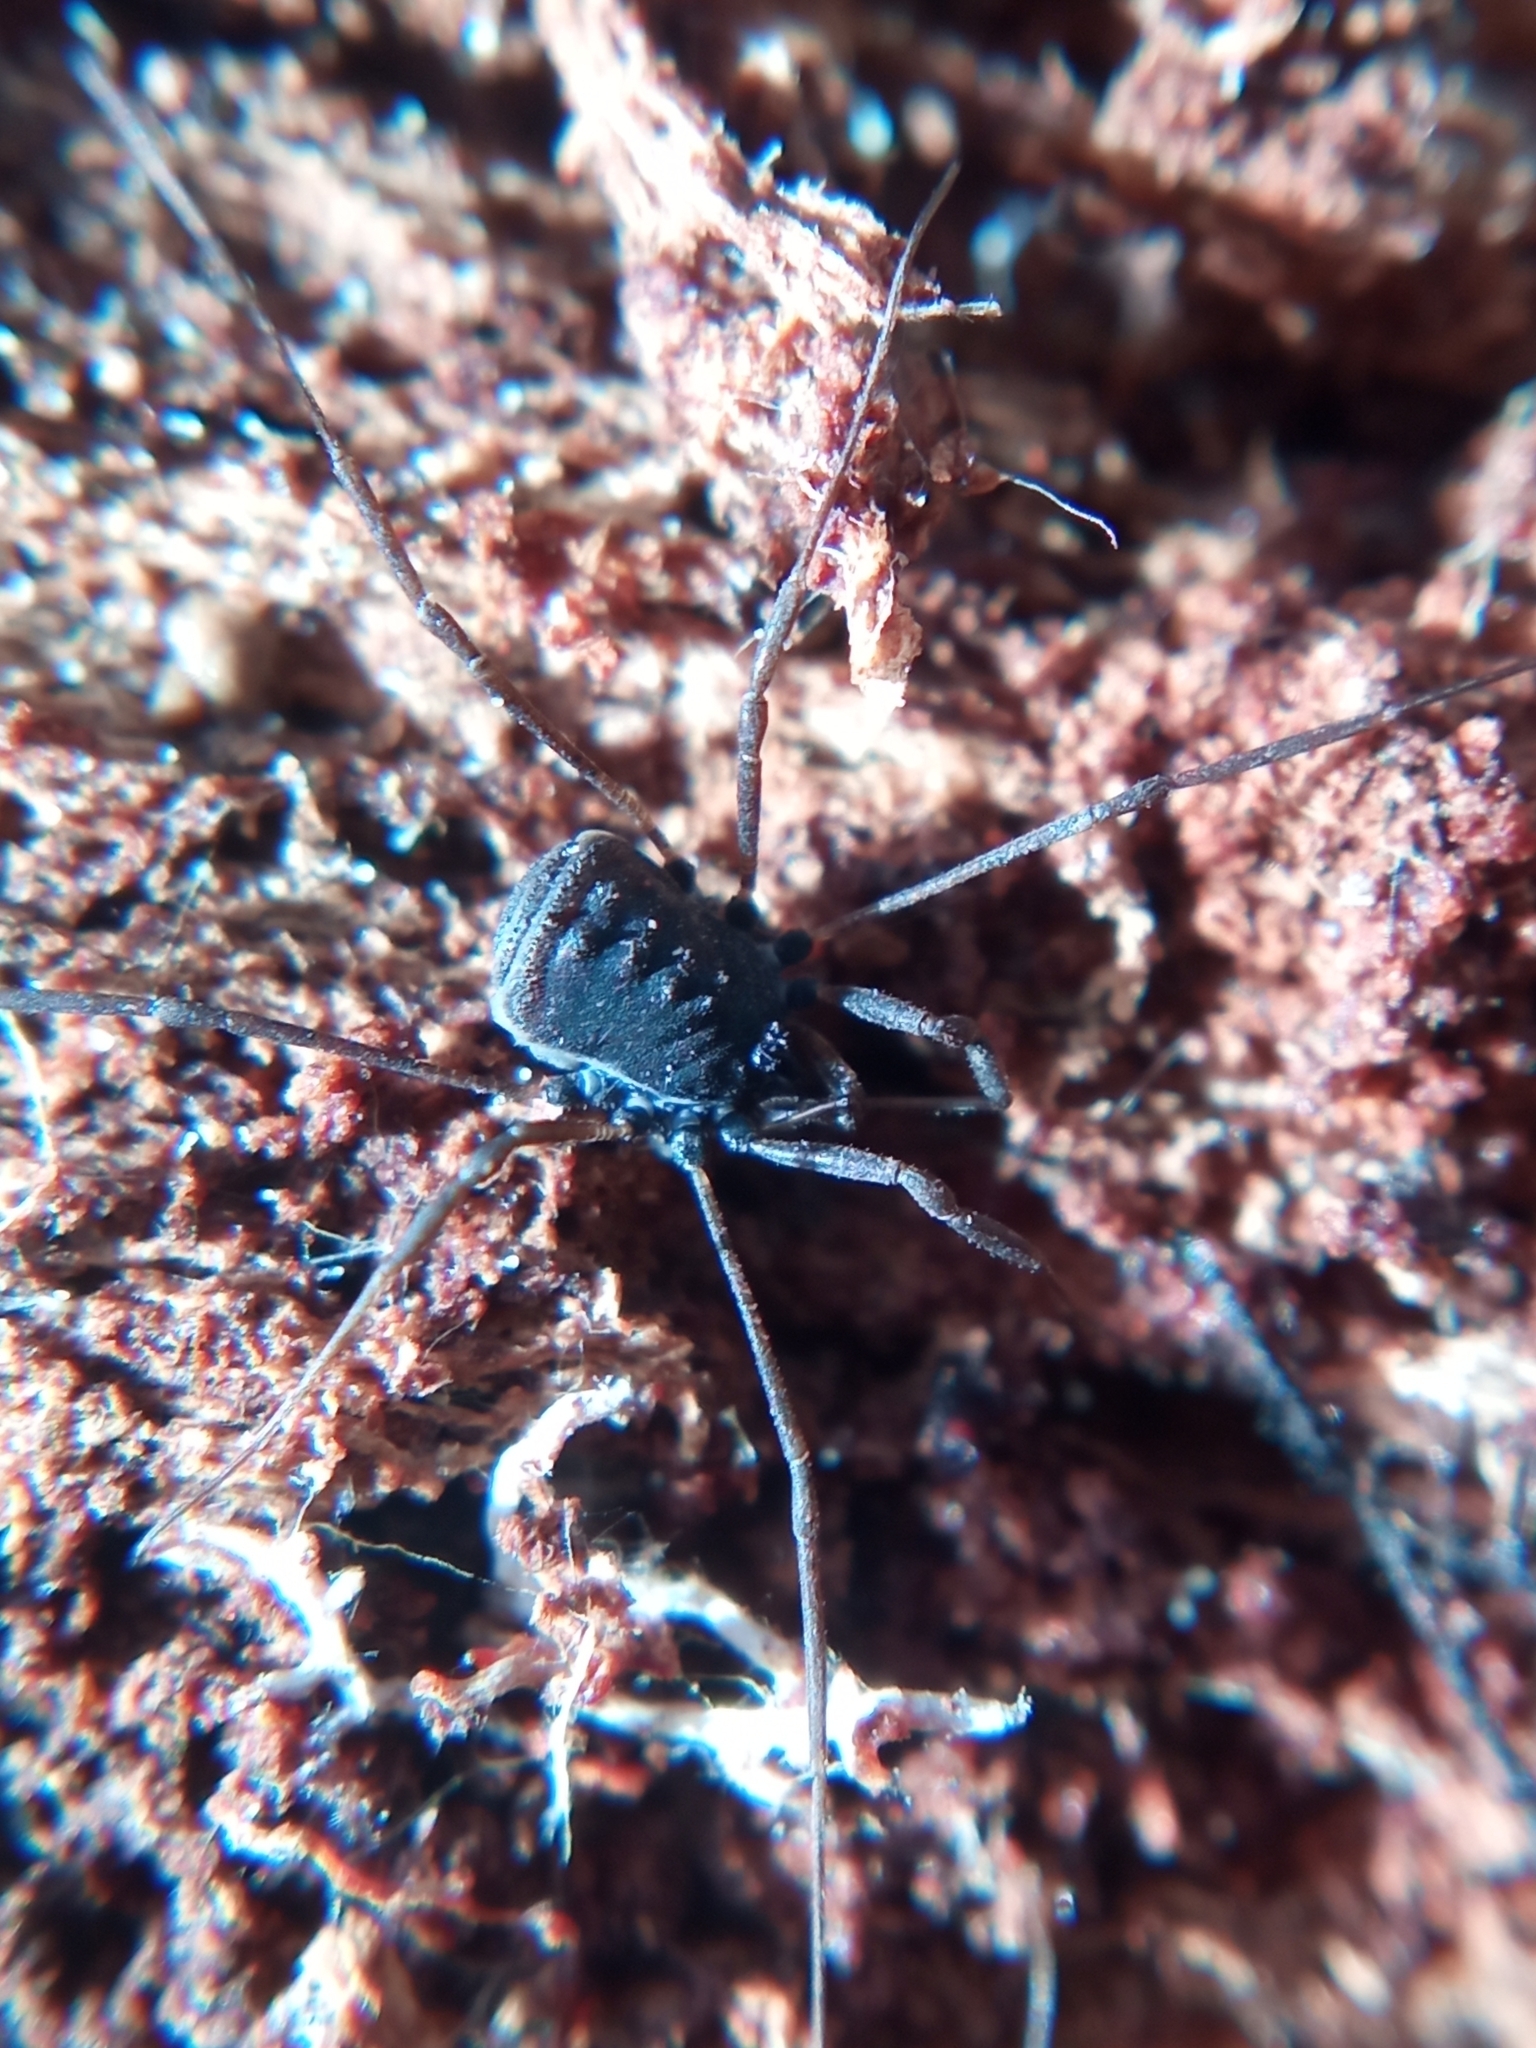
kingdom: Animalia
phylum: Arthropoda
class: Arachnida
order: Opiliones
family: Nemastomatidae
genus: Histricostoma
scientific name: Histricostoma dentipalpe
